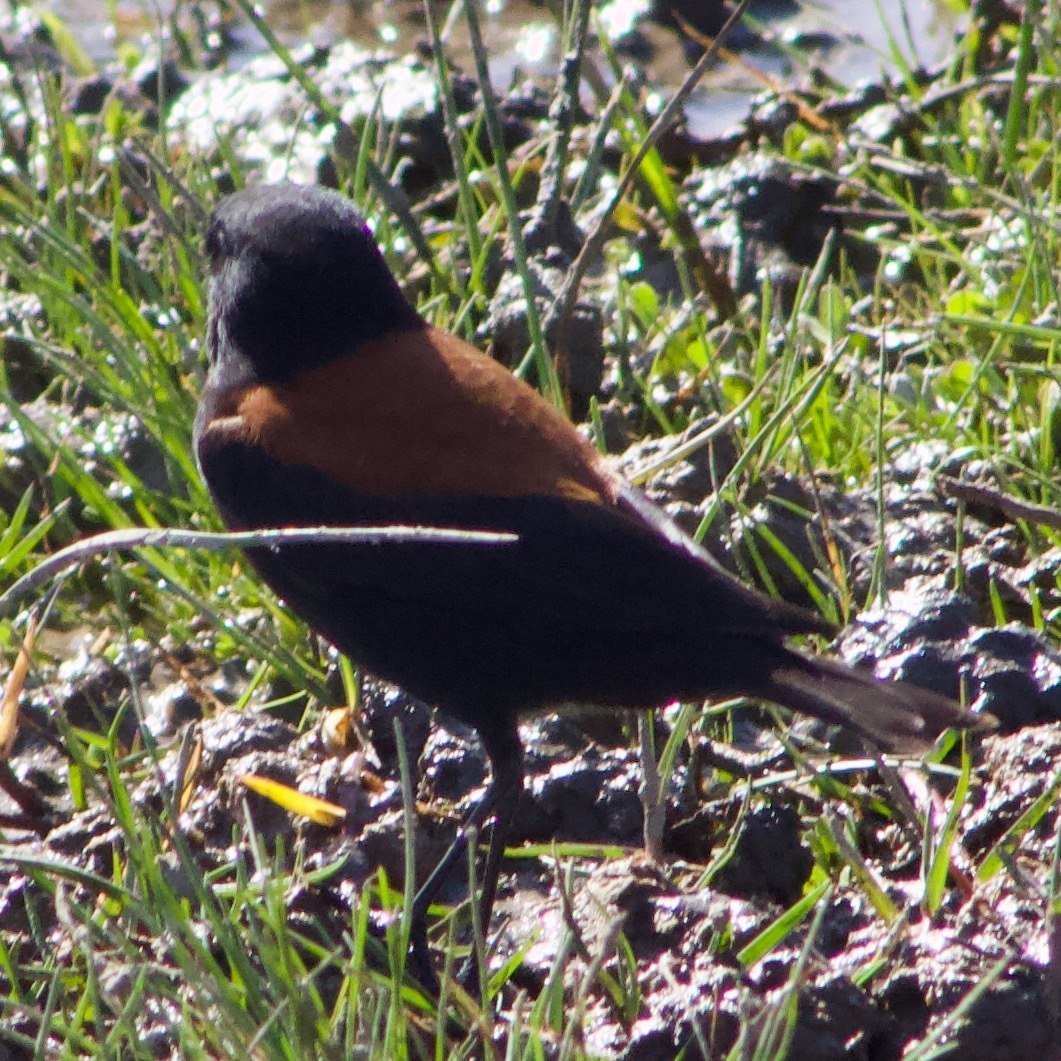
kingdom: Animalia
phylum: Chordata
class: Aves
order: Passeriformes
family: Tyrannidae
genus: Lessonia
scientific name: Lessonia rufa
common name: Austral negrito
